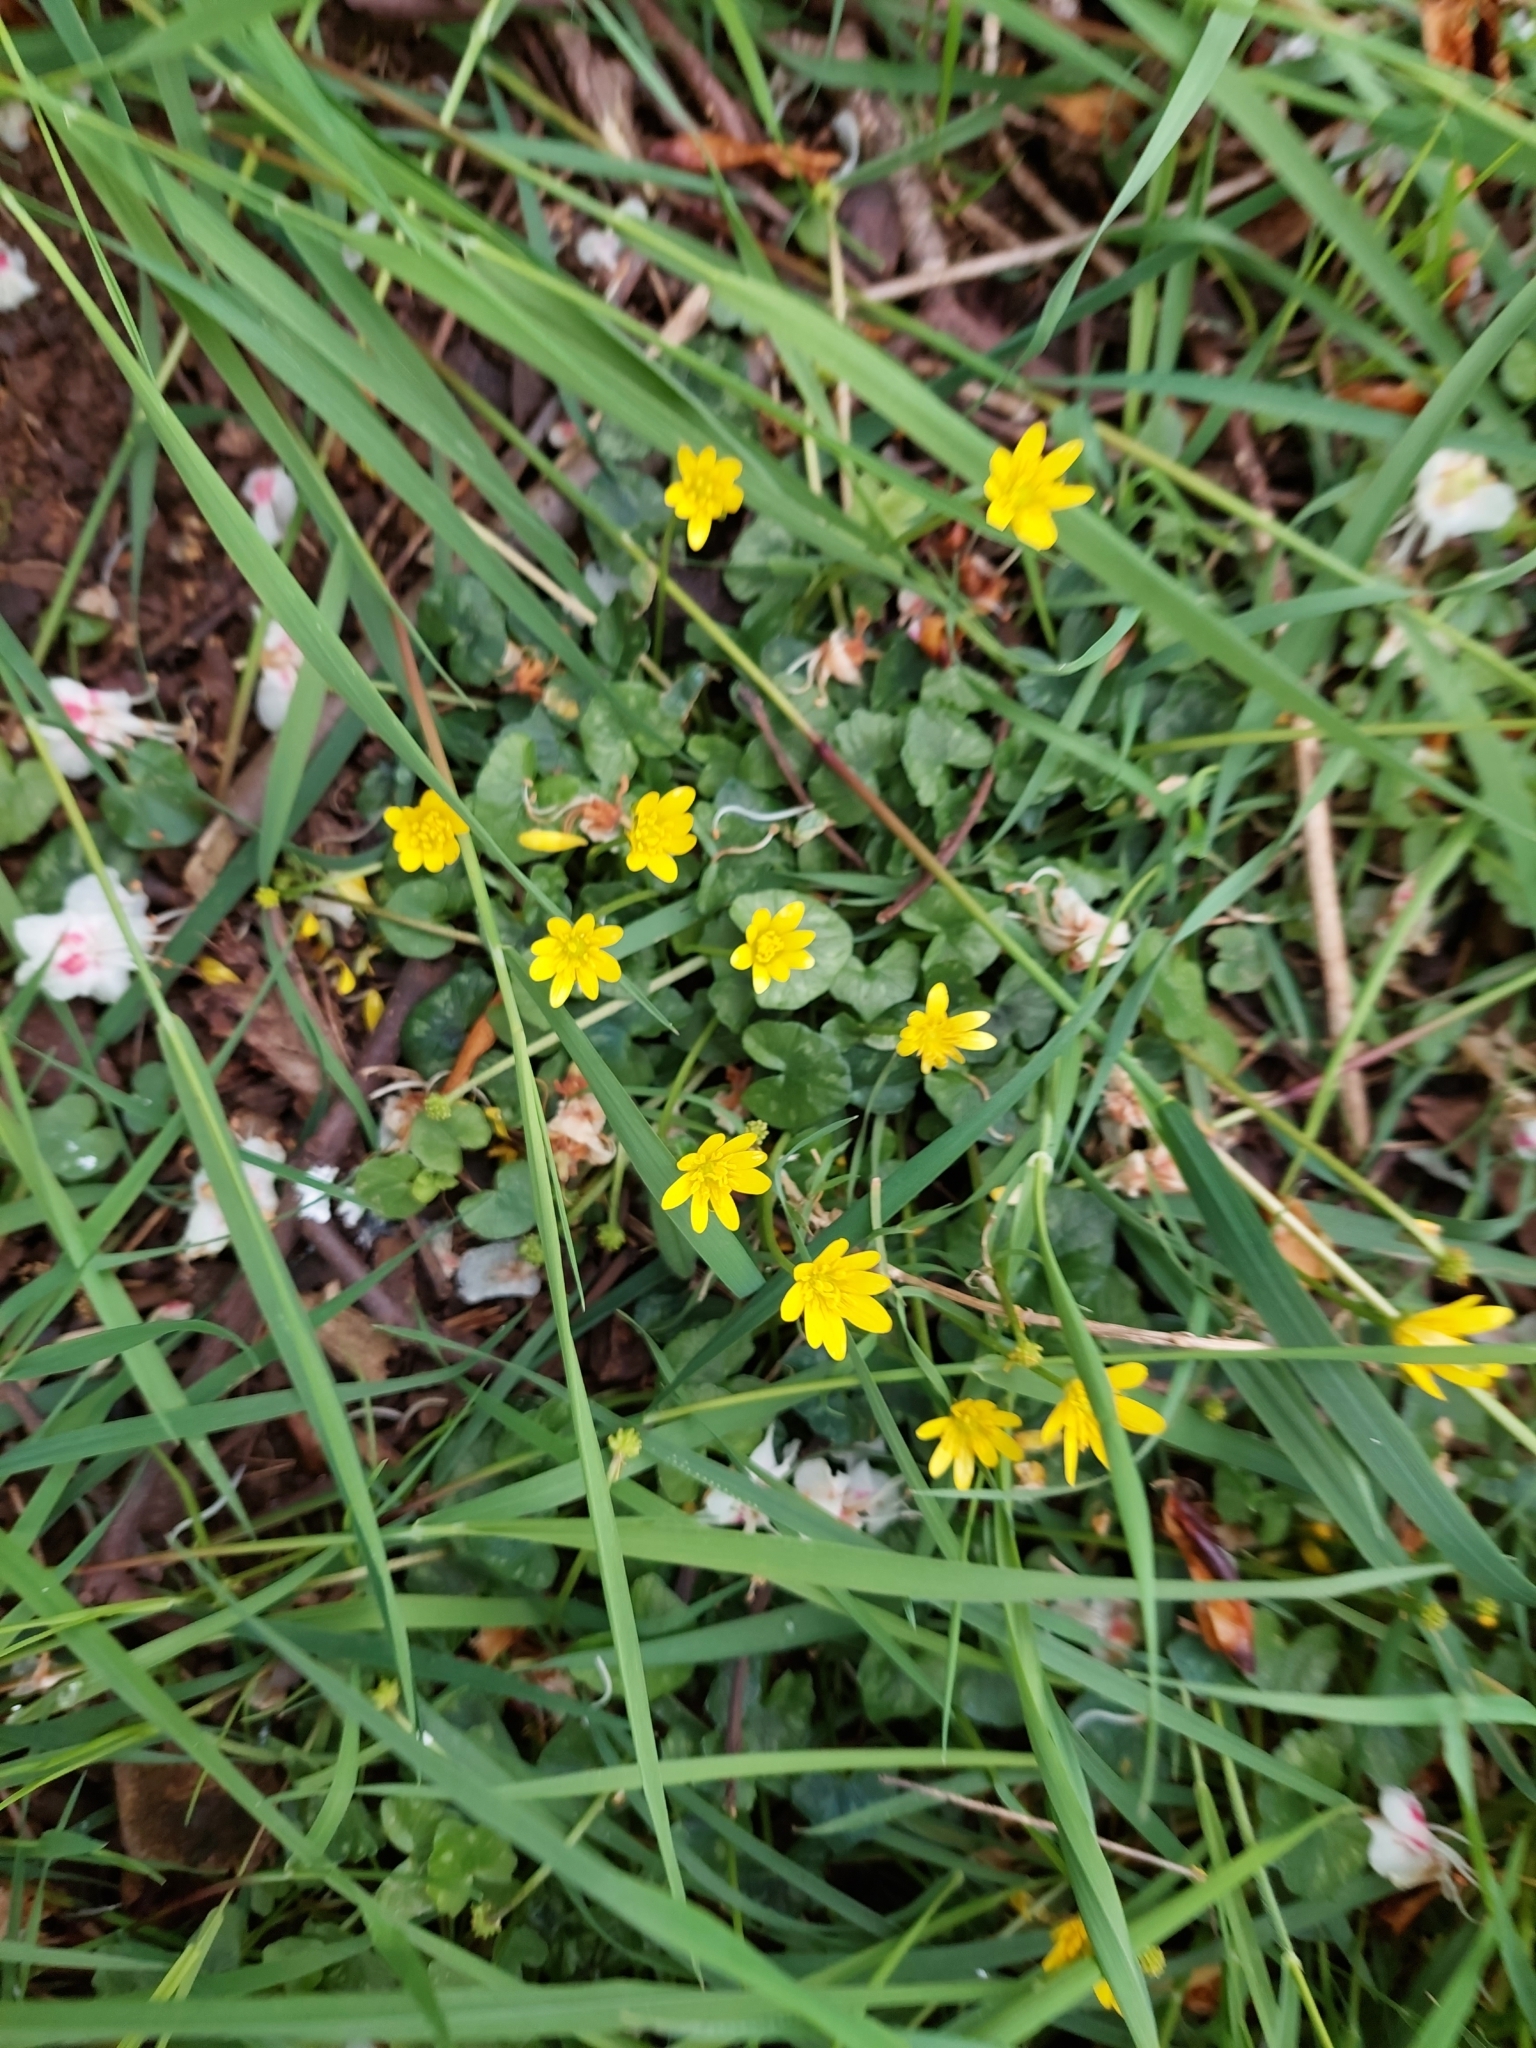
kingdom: Plantae
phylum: Tracheophyta
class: Magnoliopsida
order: Ranunculales
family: Ranunculaceae
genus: Ficaria
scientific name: Ficaria verna
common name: Lesser celandine
